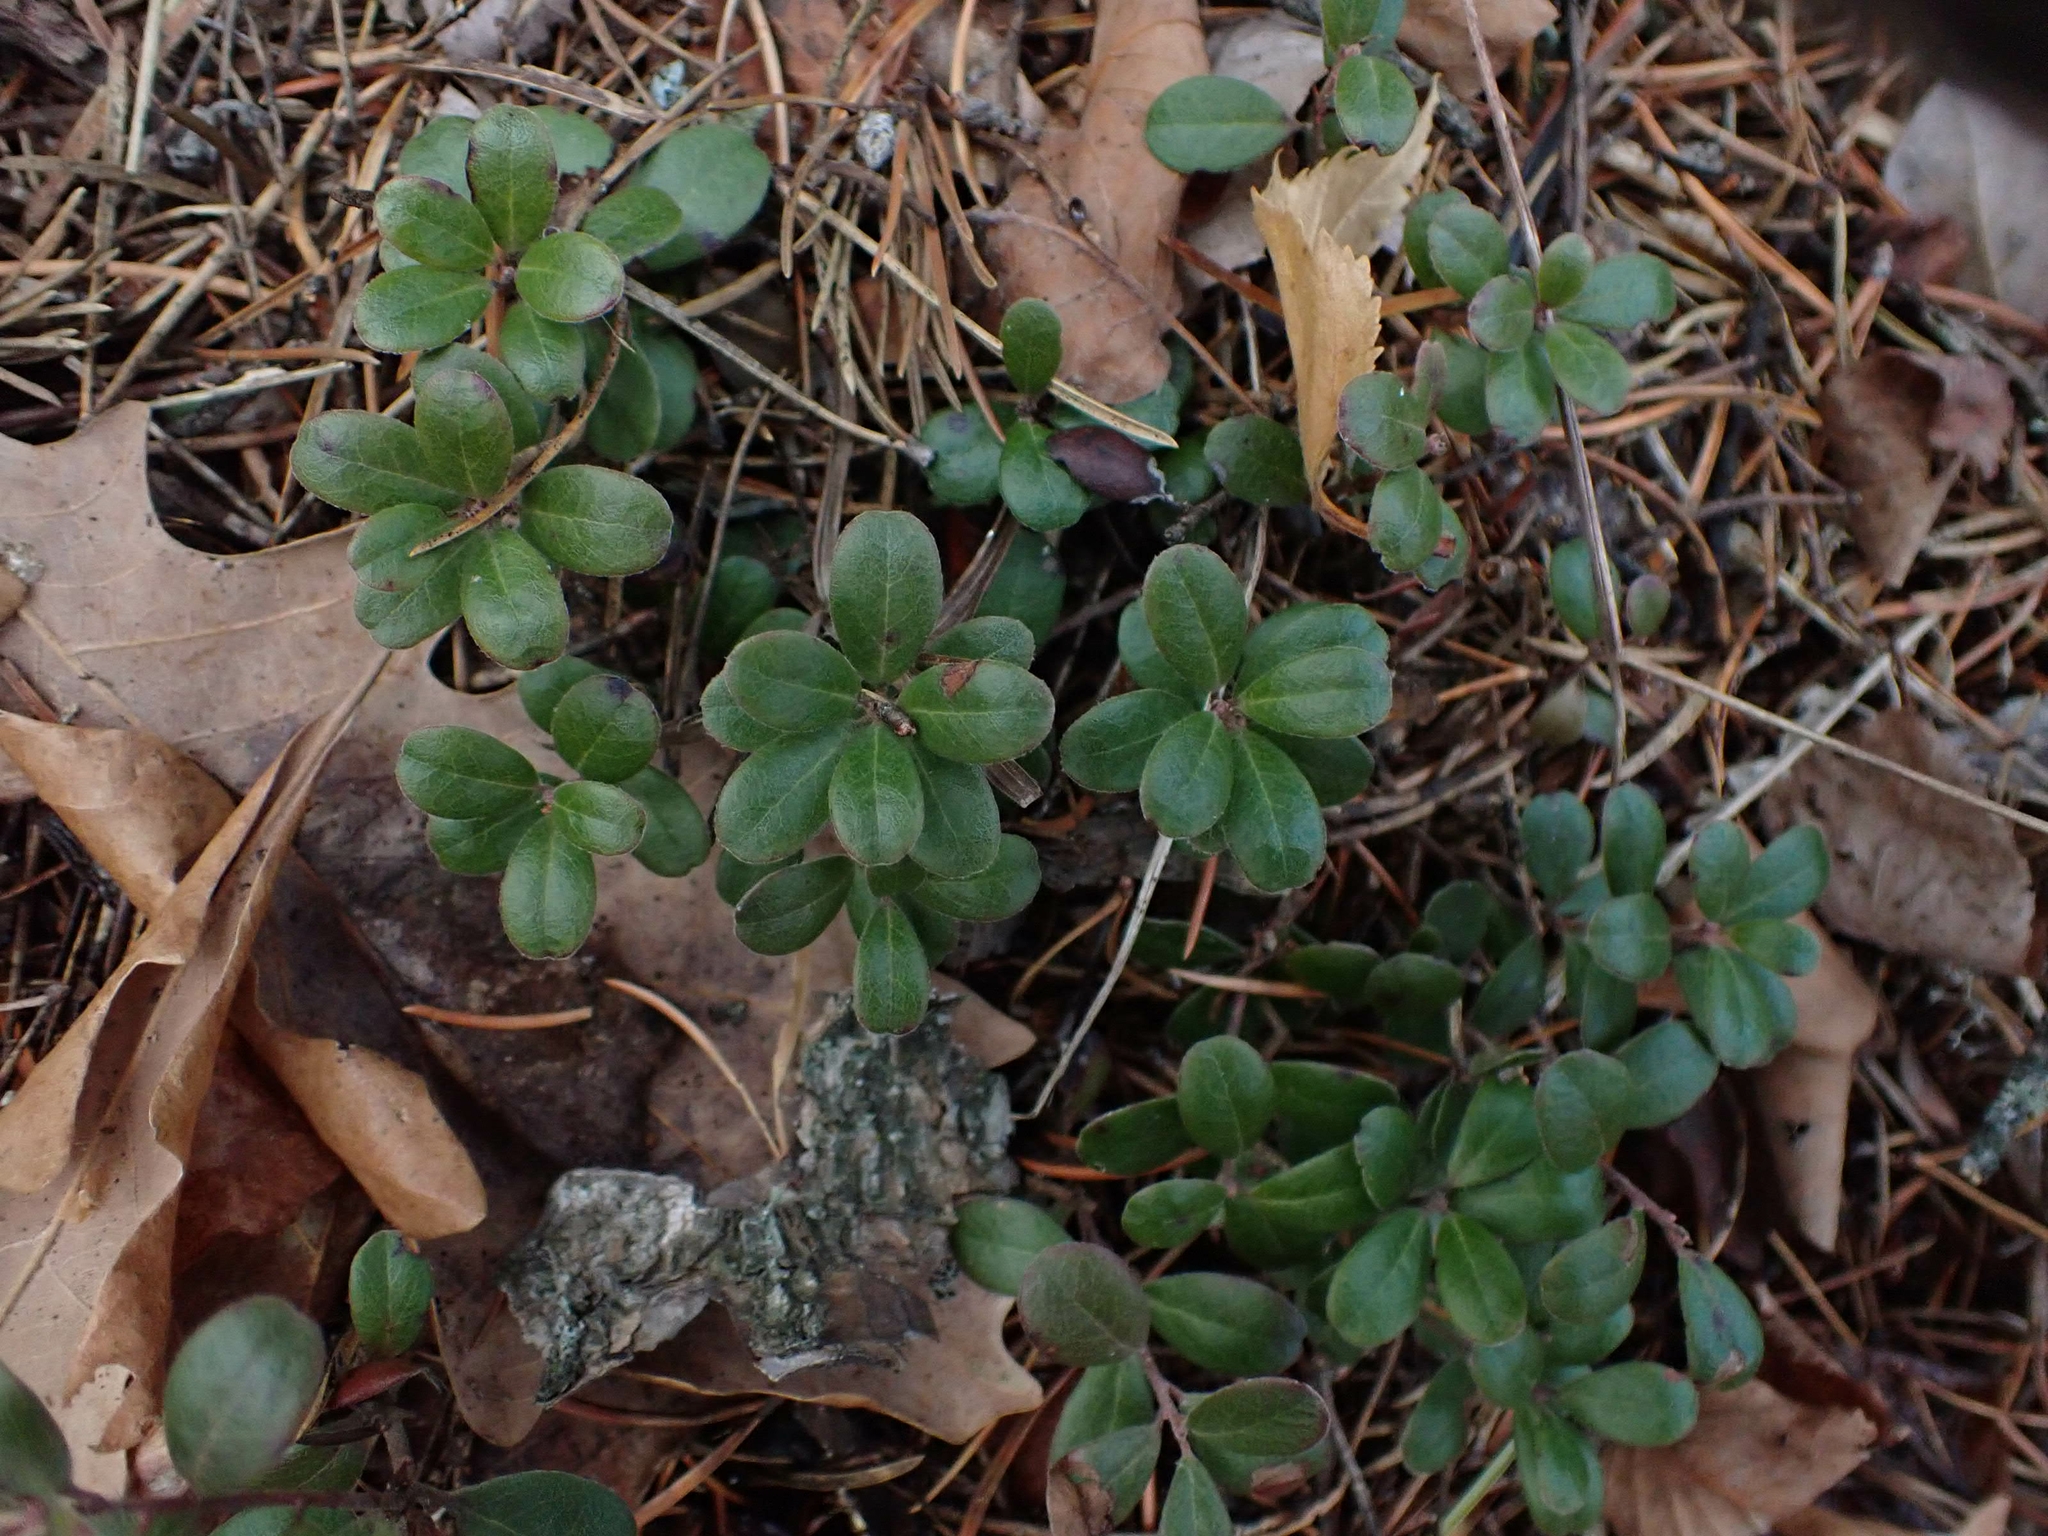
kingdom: Plantae
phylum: Tracheophyta
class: Magnoliopsida
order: Ericales
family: Ericaceae
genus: Arctostaphylos
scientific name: Arctostaphylos uva-ursi
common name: Bearberry
